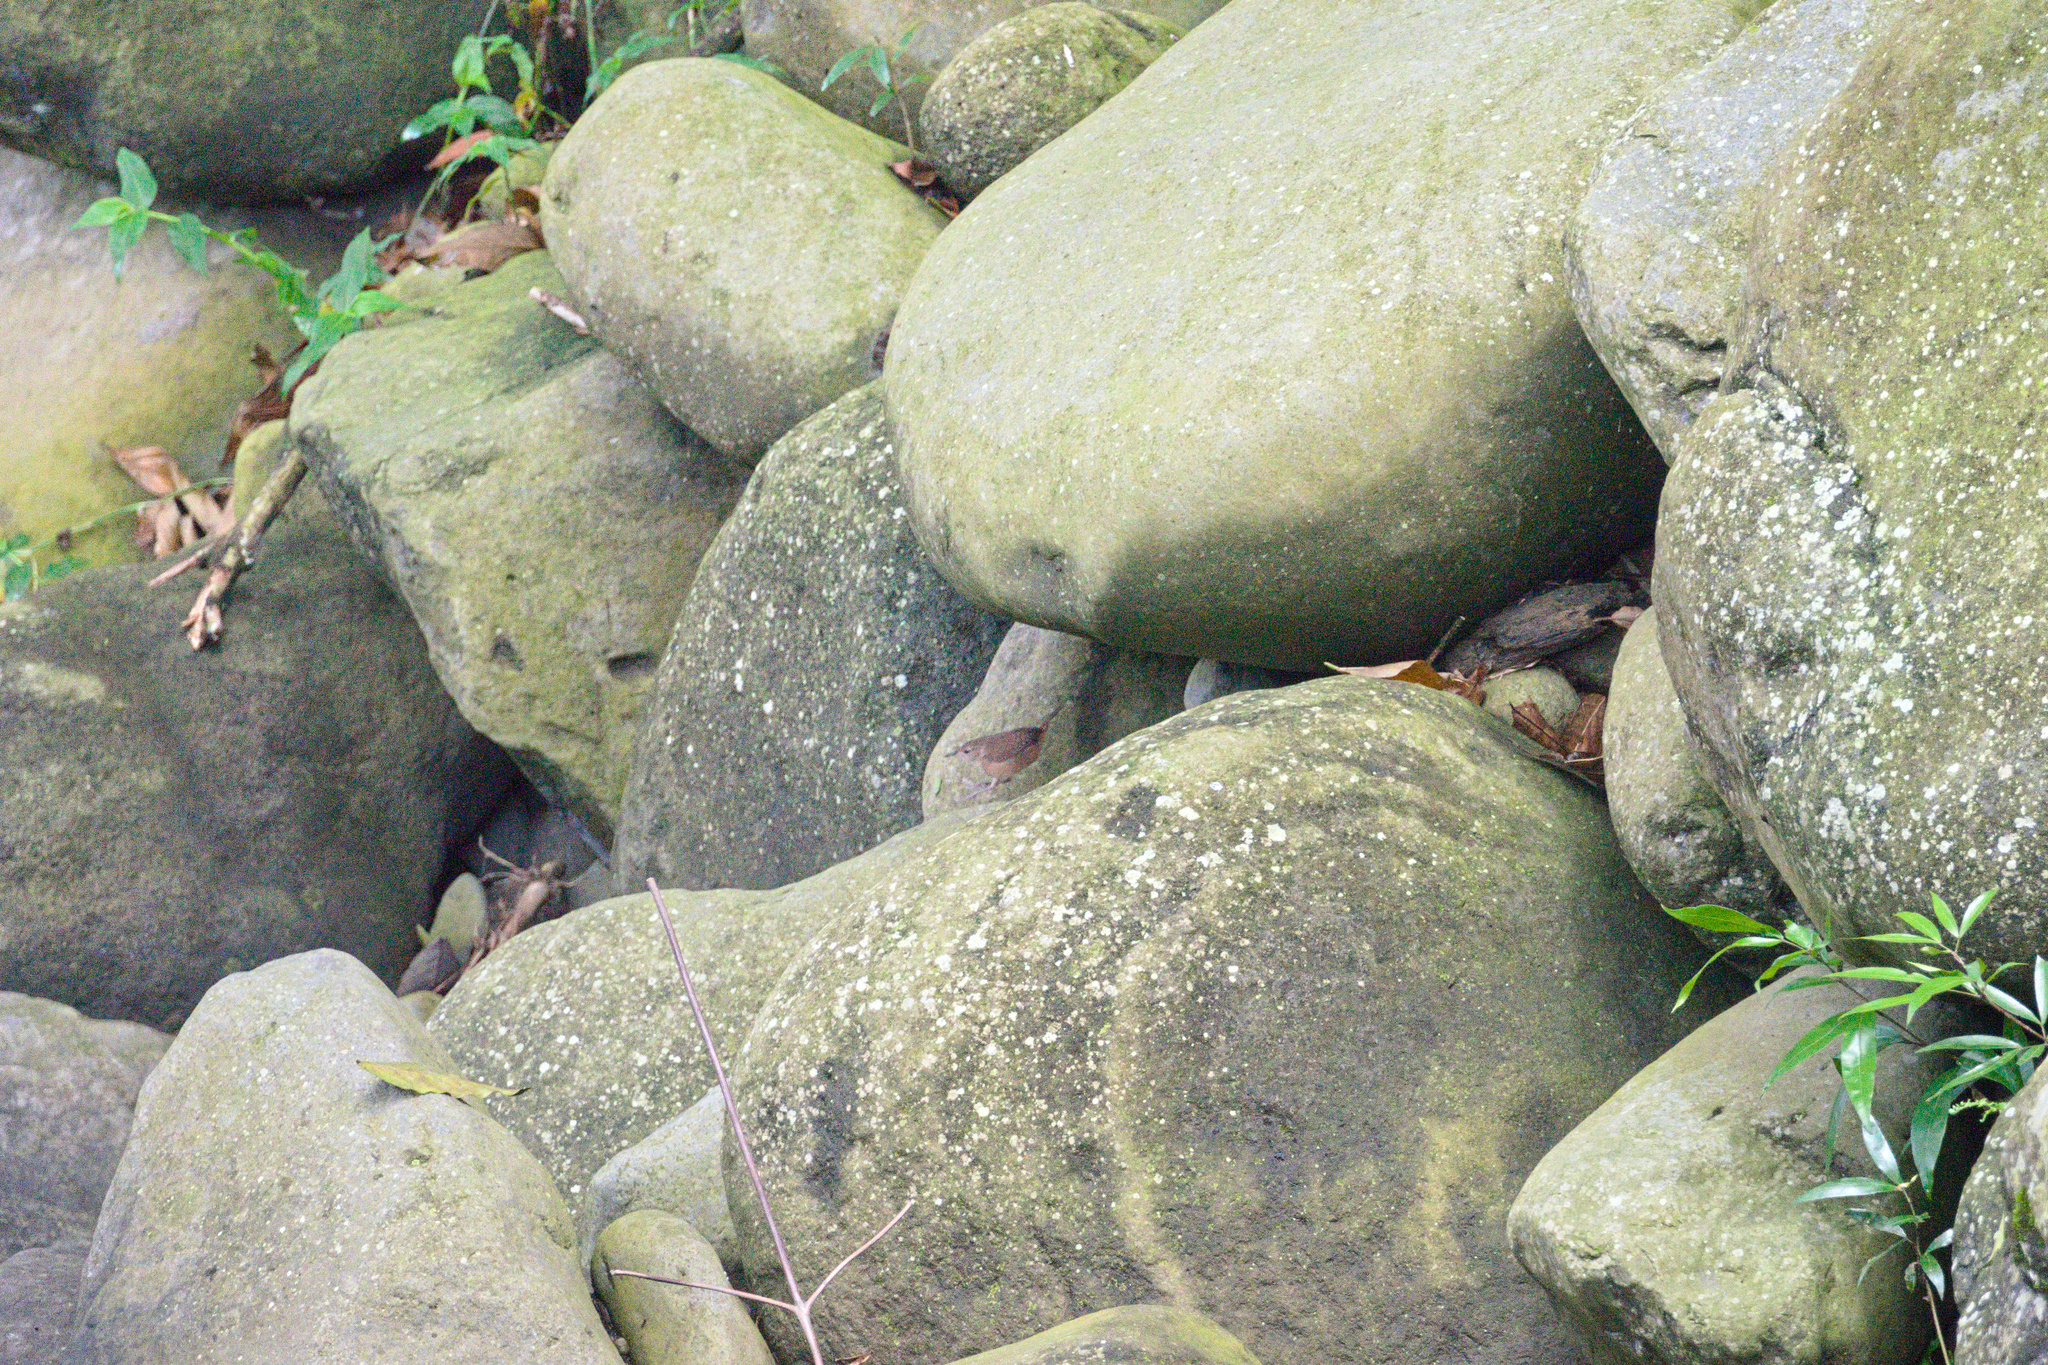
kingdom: Animalia
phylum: Chordata
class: Aves
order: Passeriformes
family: Troglodytidae
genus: Troglodytes
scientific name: Troglodytes aedon
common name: House wren
